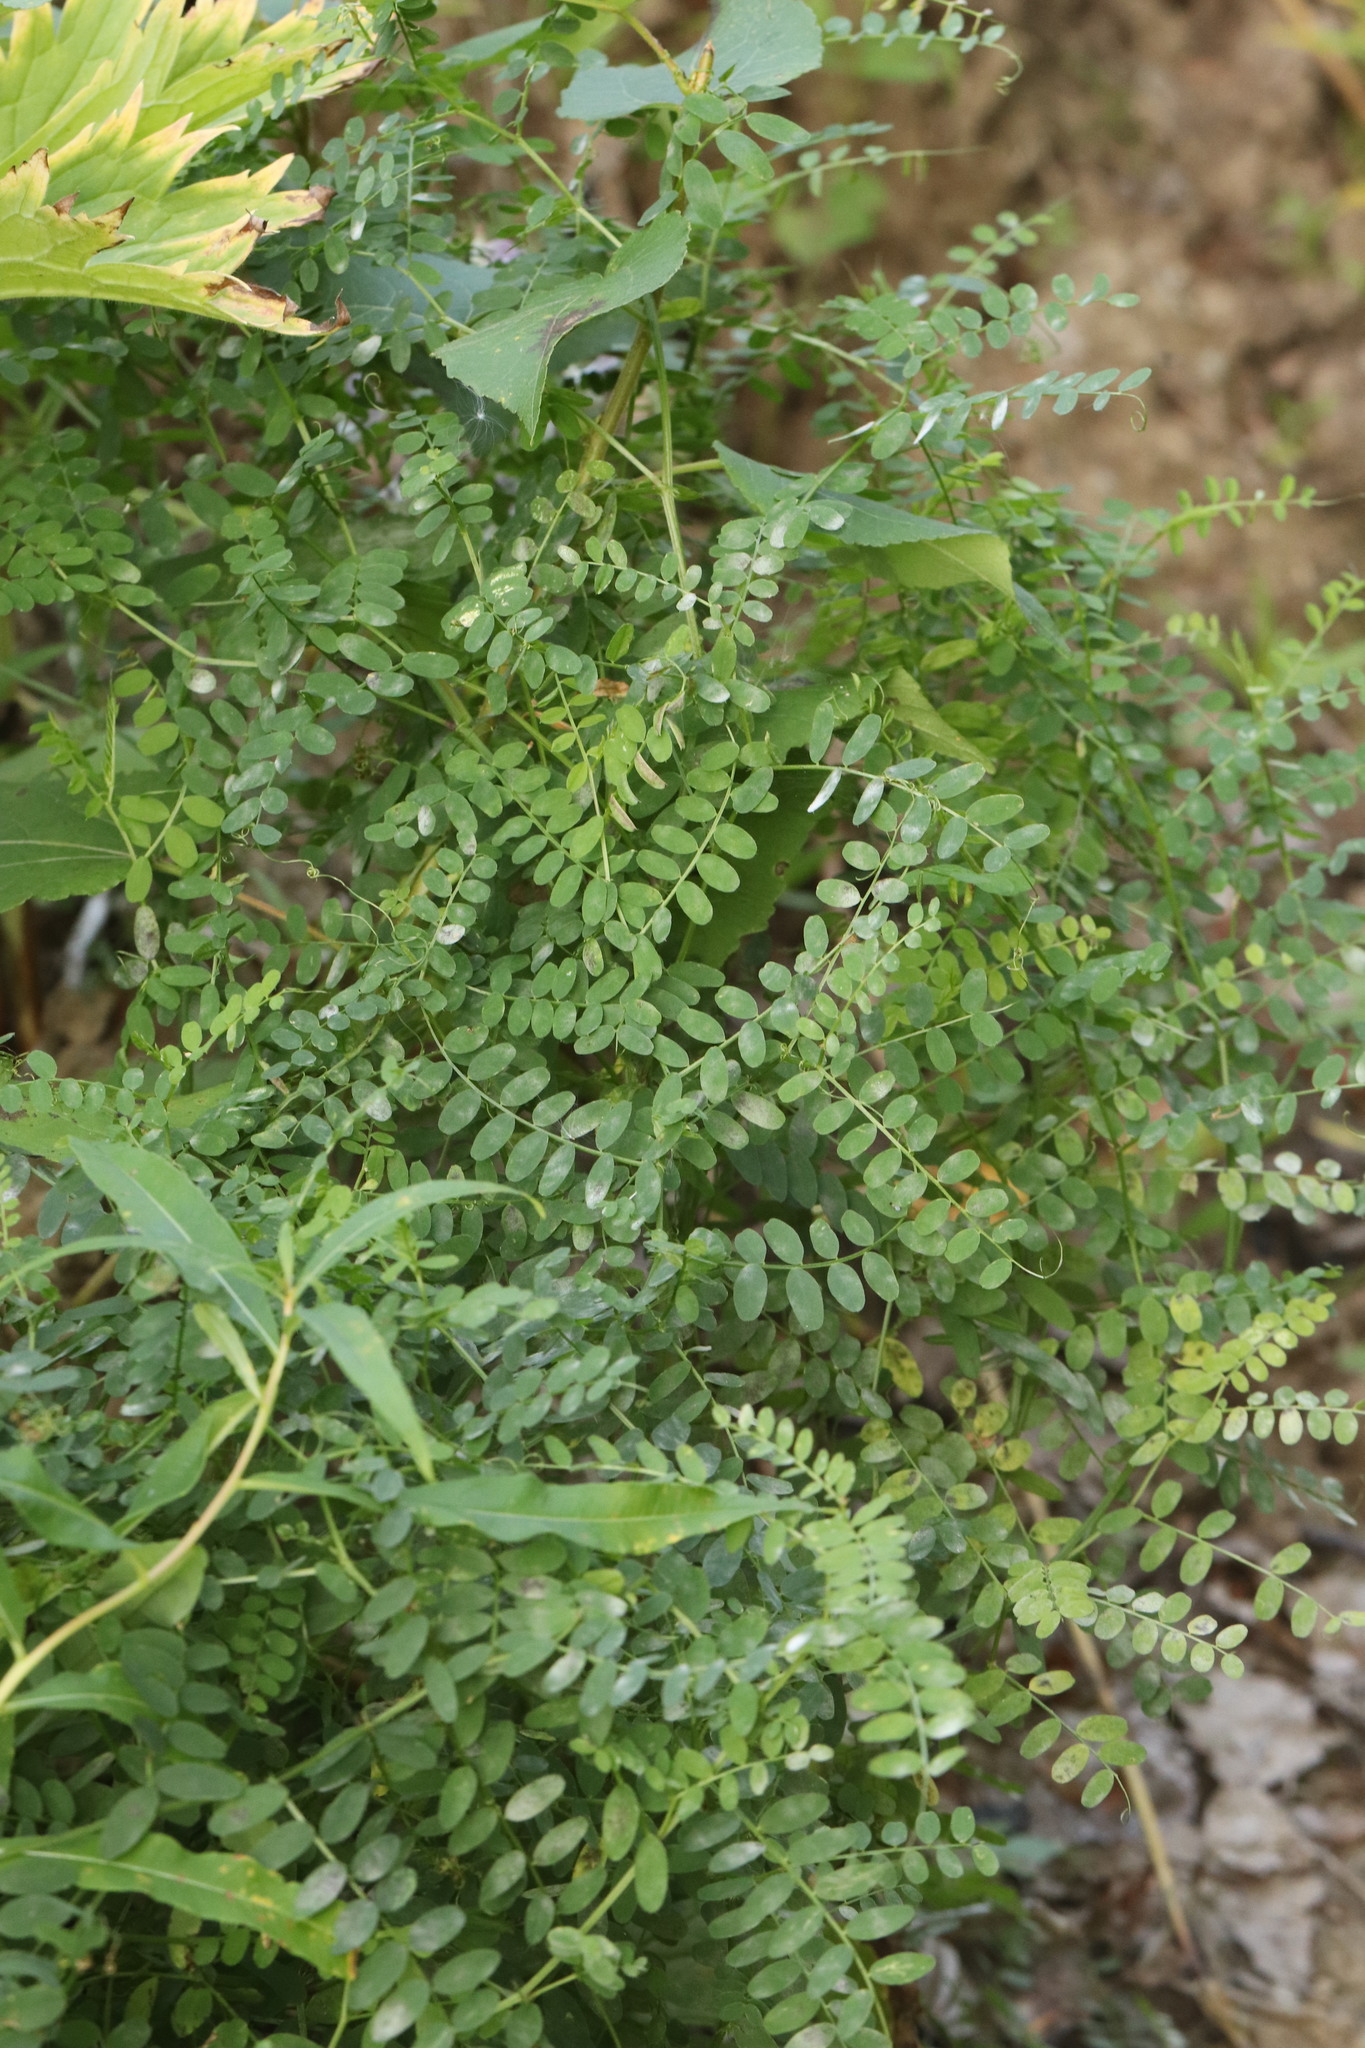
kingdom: Plantae
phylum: Tracheophyta
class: Magnoliopsida
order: Fabales
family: Fabaceae
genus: Vicia
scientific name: Vicia sylvatica
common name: Wood vetch
